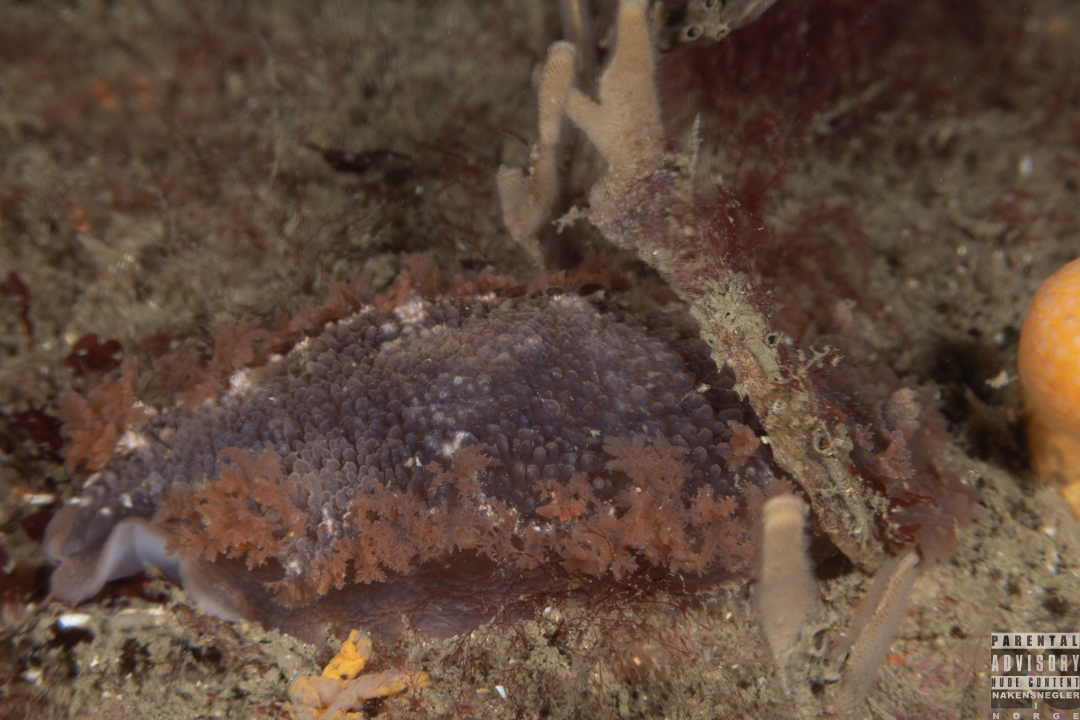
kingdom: Animalia
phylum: Mollusca
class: Gastropoda
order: Nudibranchia
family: Tritoniidae
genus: Tritonia
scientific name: Tritonia hombergii
